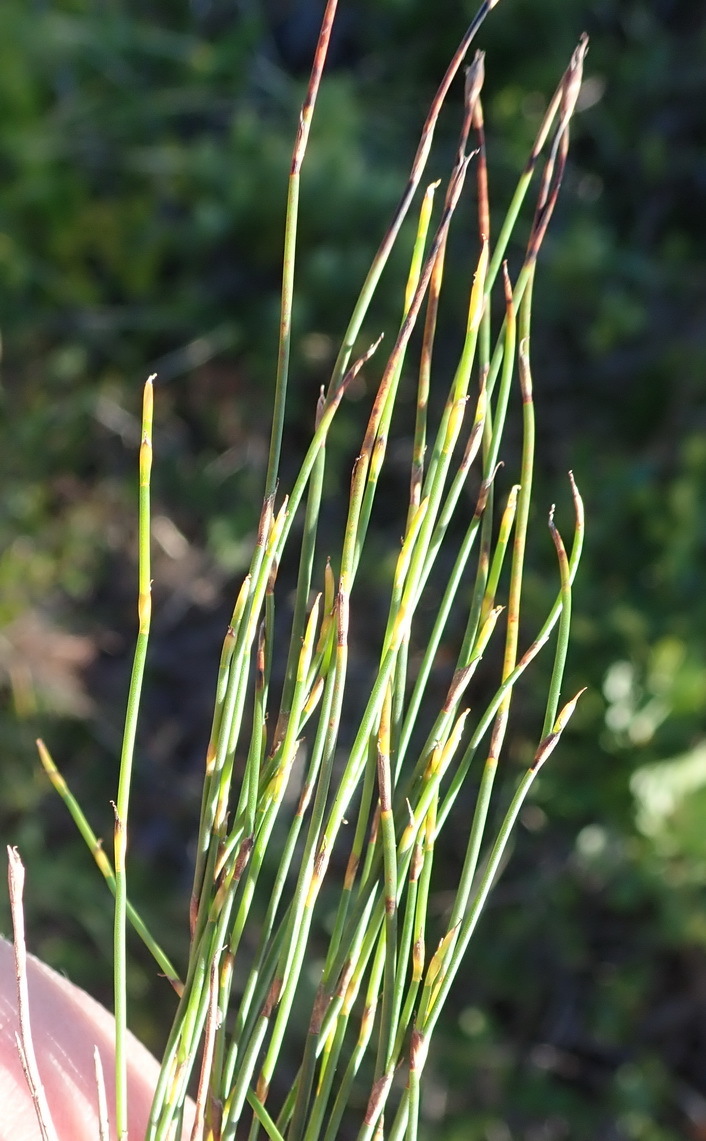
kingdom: Plantae
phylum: Tracheophyta
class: Liliopsida
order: Poales
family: Restionaceae
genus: Restio
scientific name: Restio eleocharis
